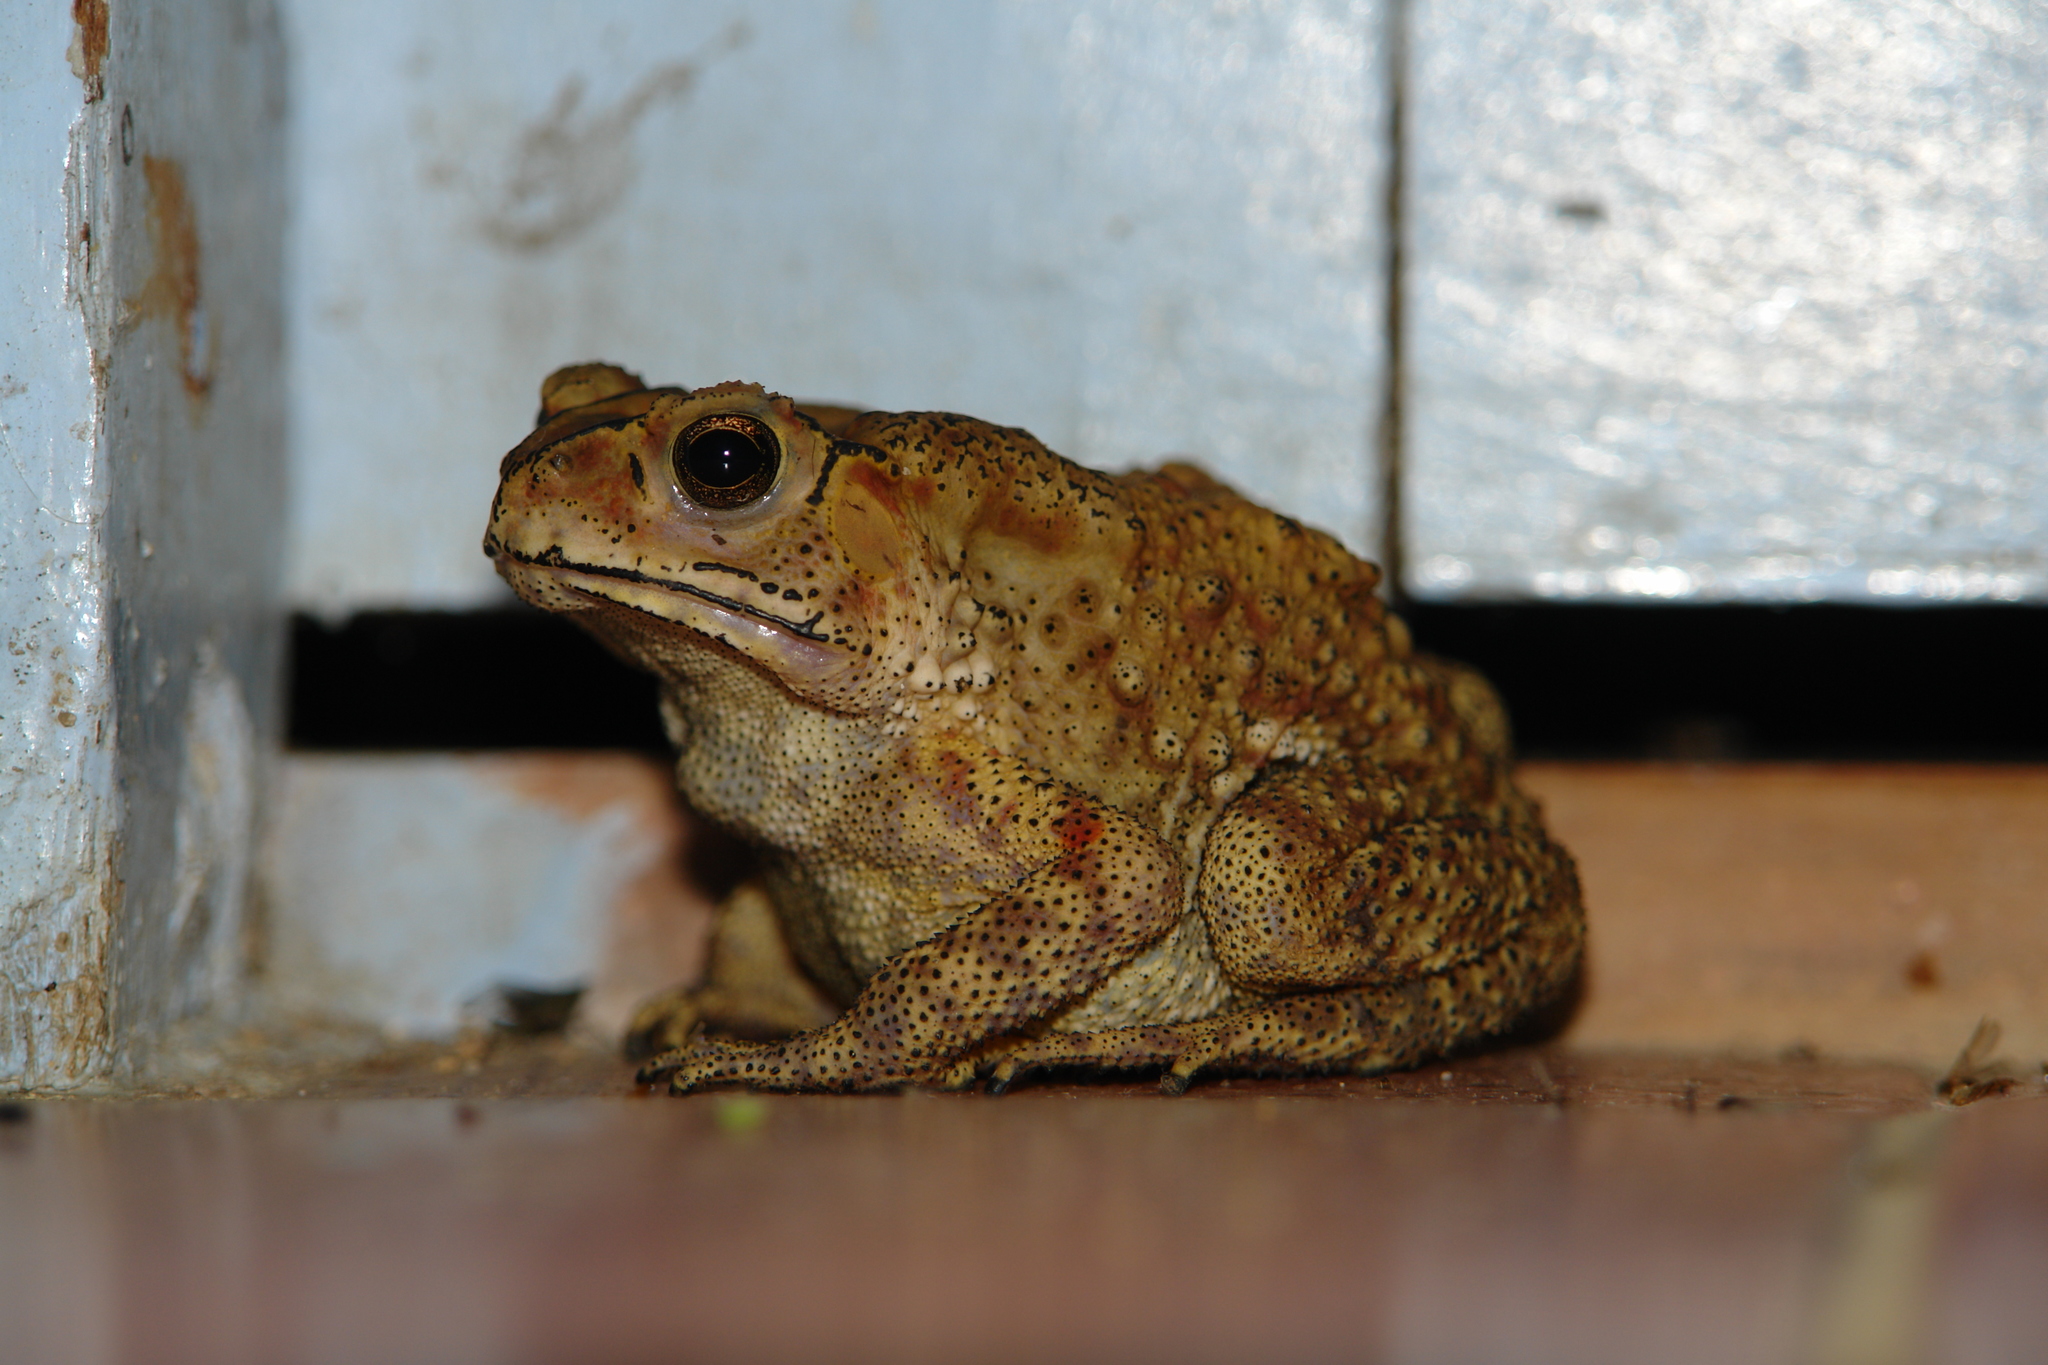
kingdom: Animalia
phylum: Chordata
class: Amphibia
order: Anura
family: Bufonidae
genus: Duttaphrynus
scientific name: Duttaphrynus melanostictus
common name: Common sunda toad
